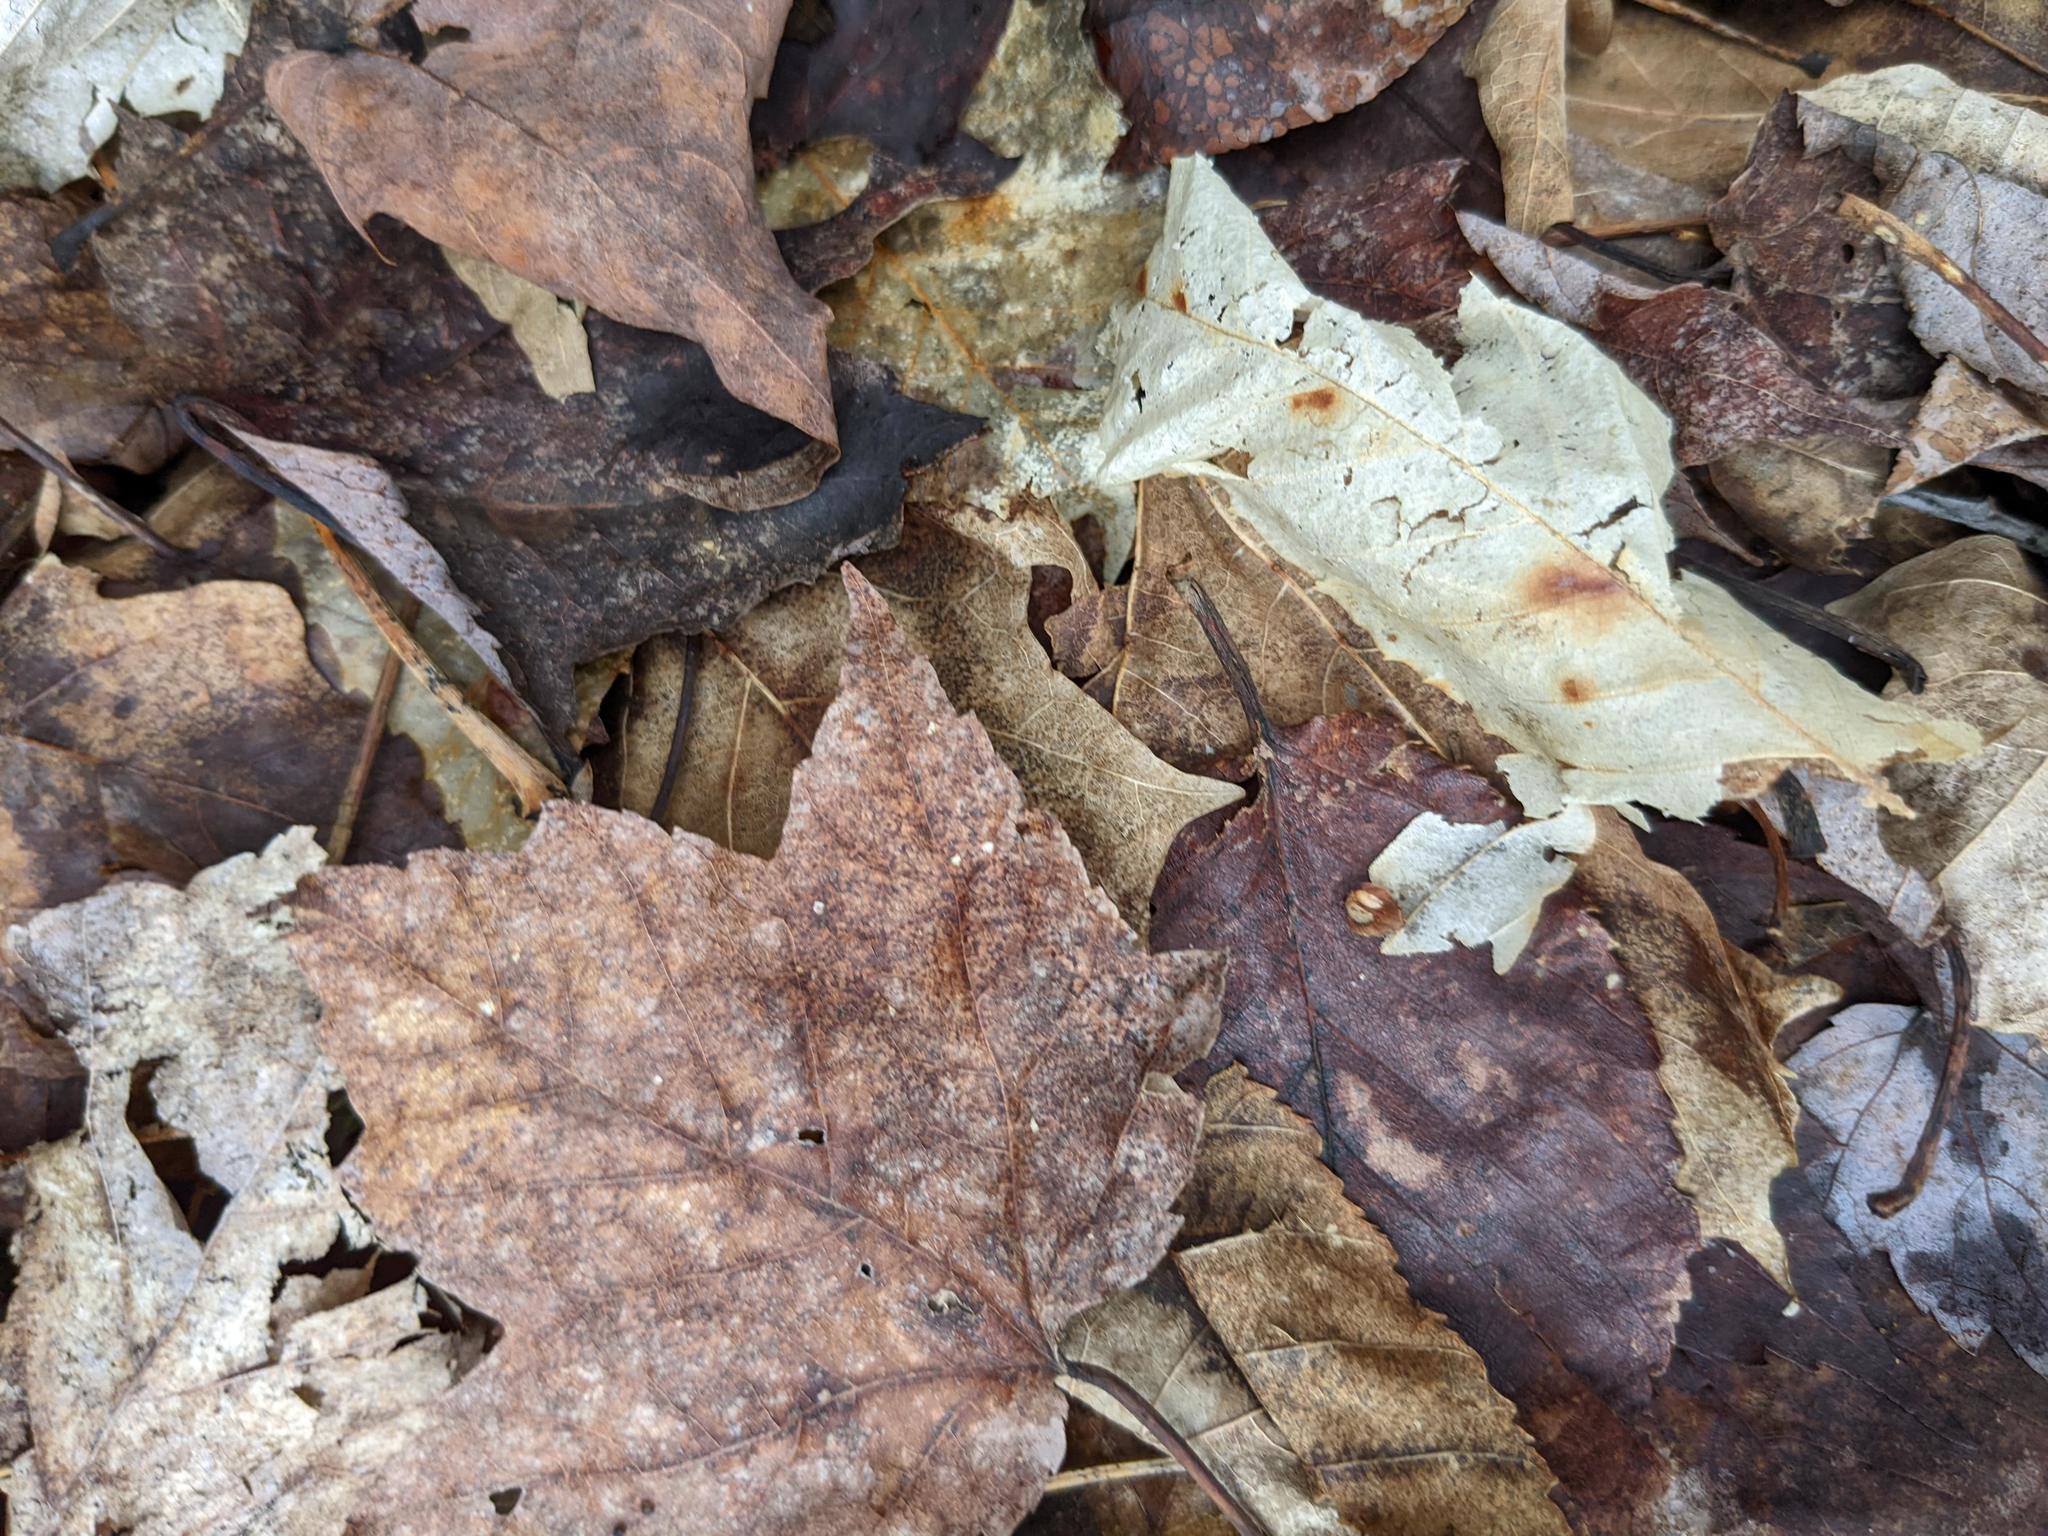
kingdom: Plantae
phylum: Tracheophyta
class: Magnoliopsida
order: Sapindales
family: Sapindaceae
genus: Acer
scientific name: Acer rubrum
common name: Red maple
